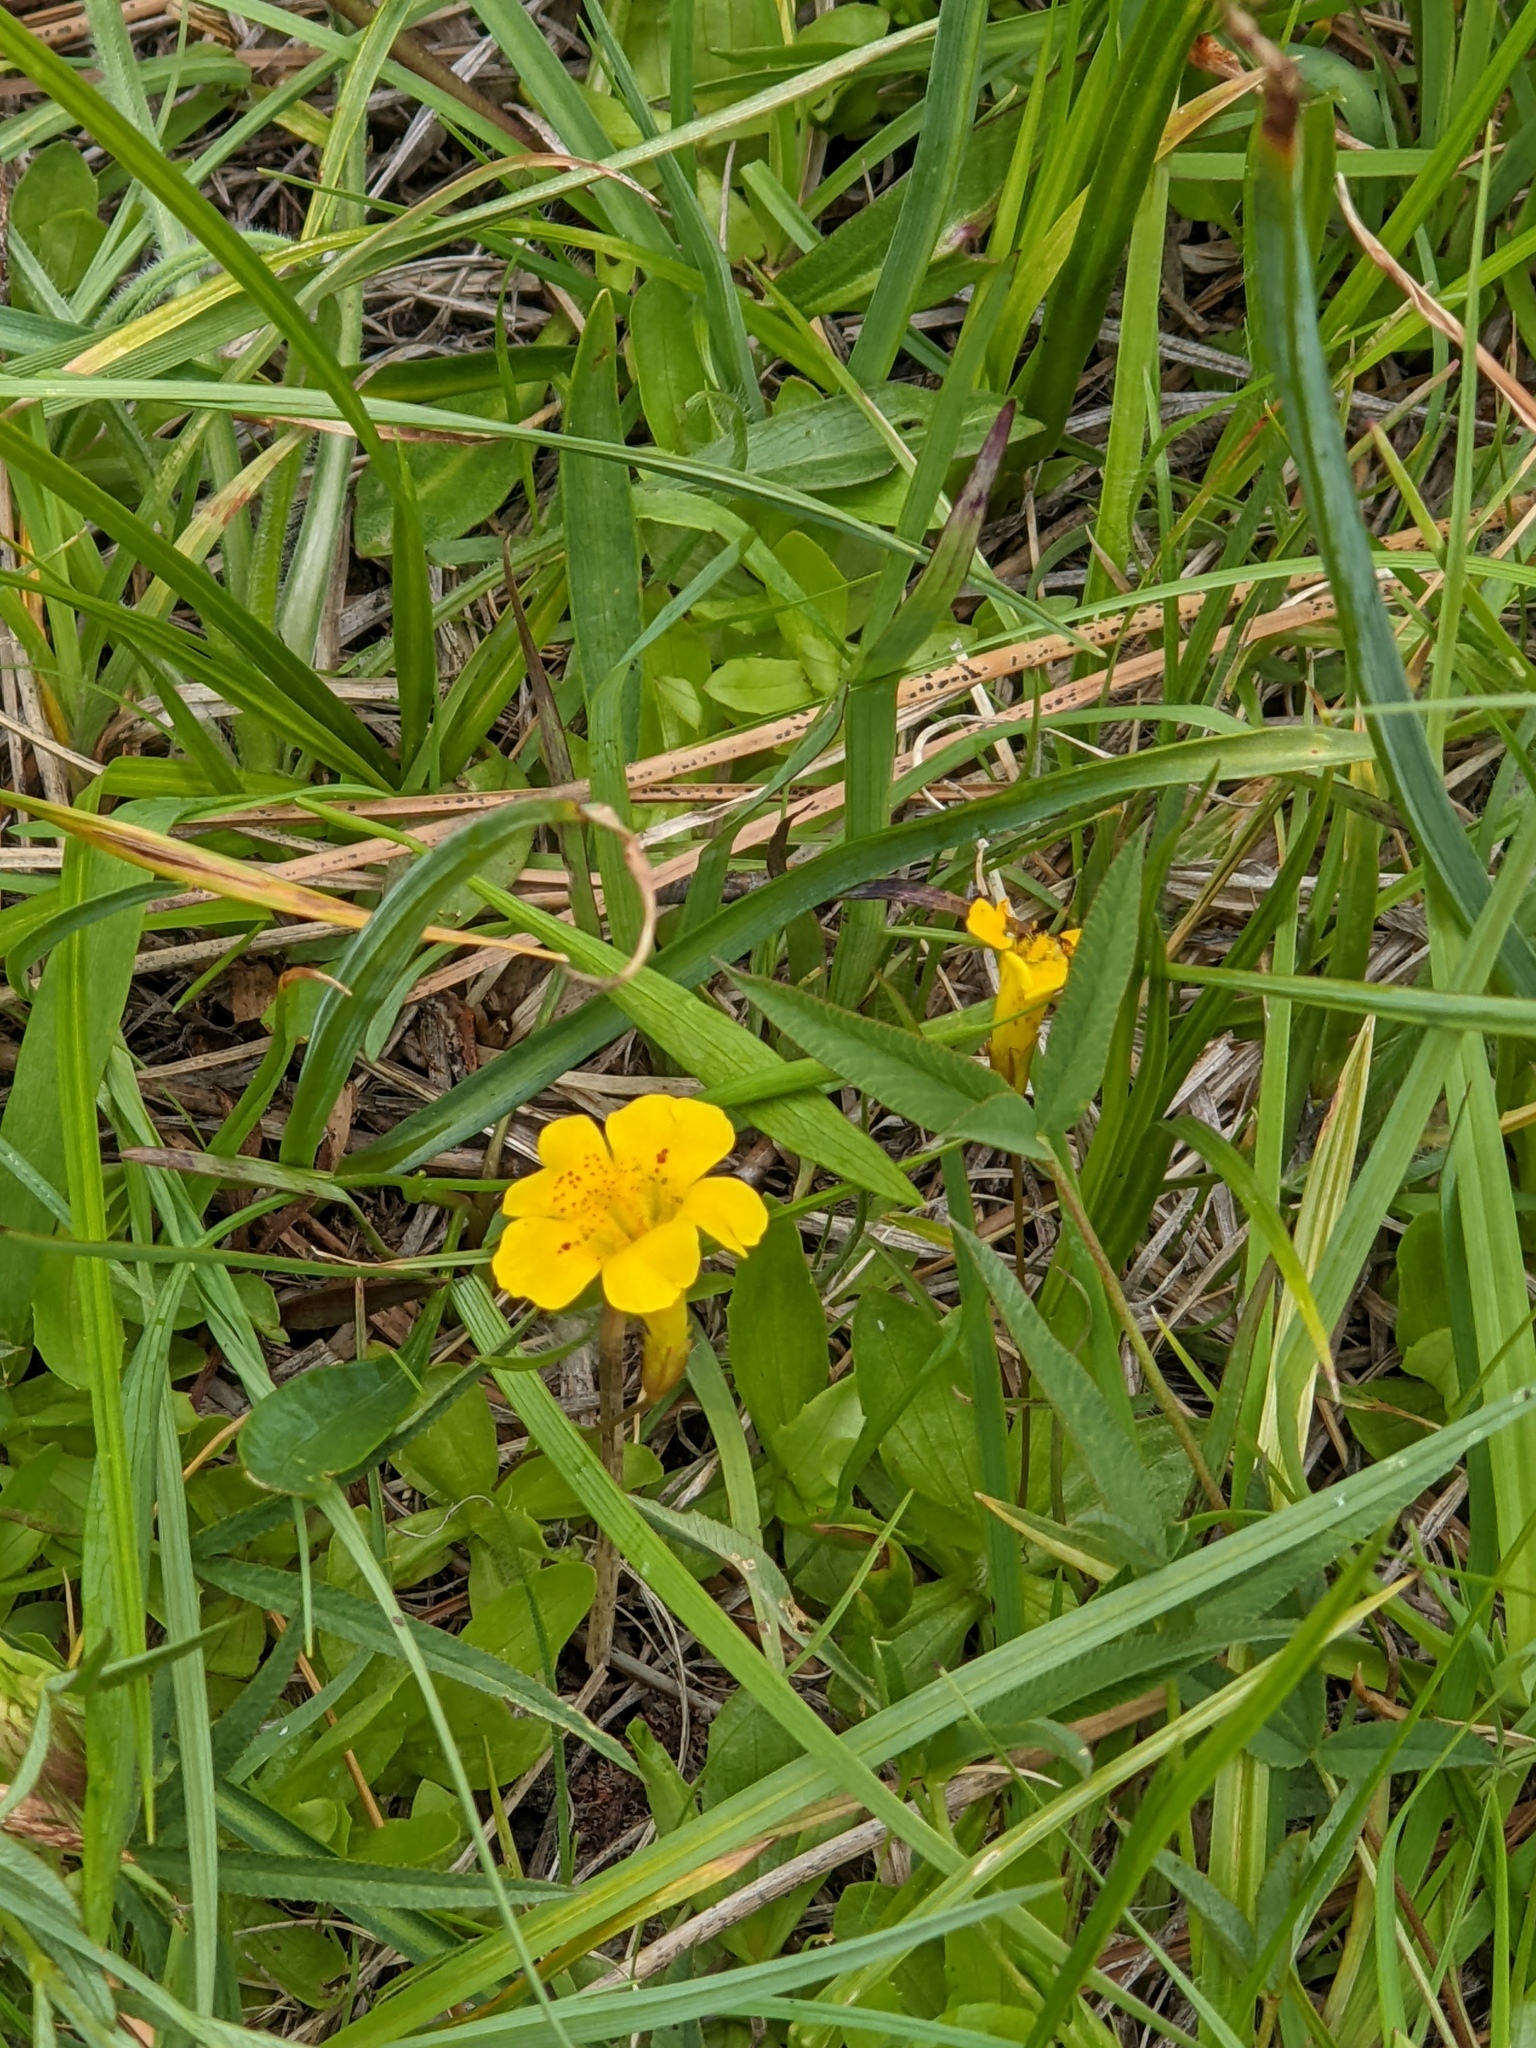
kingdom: Plantae
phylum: Tracheophyta
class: Magnoliopsida
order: Lamiales
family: Phrymaceae
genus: Erythranthe
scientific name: Erythranthe primuloides
